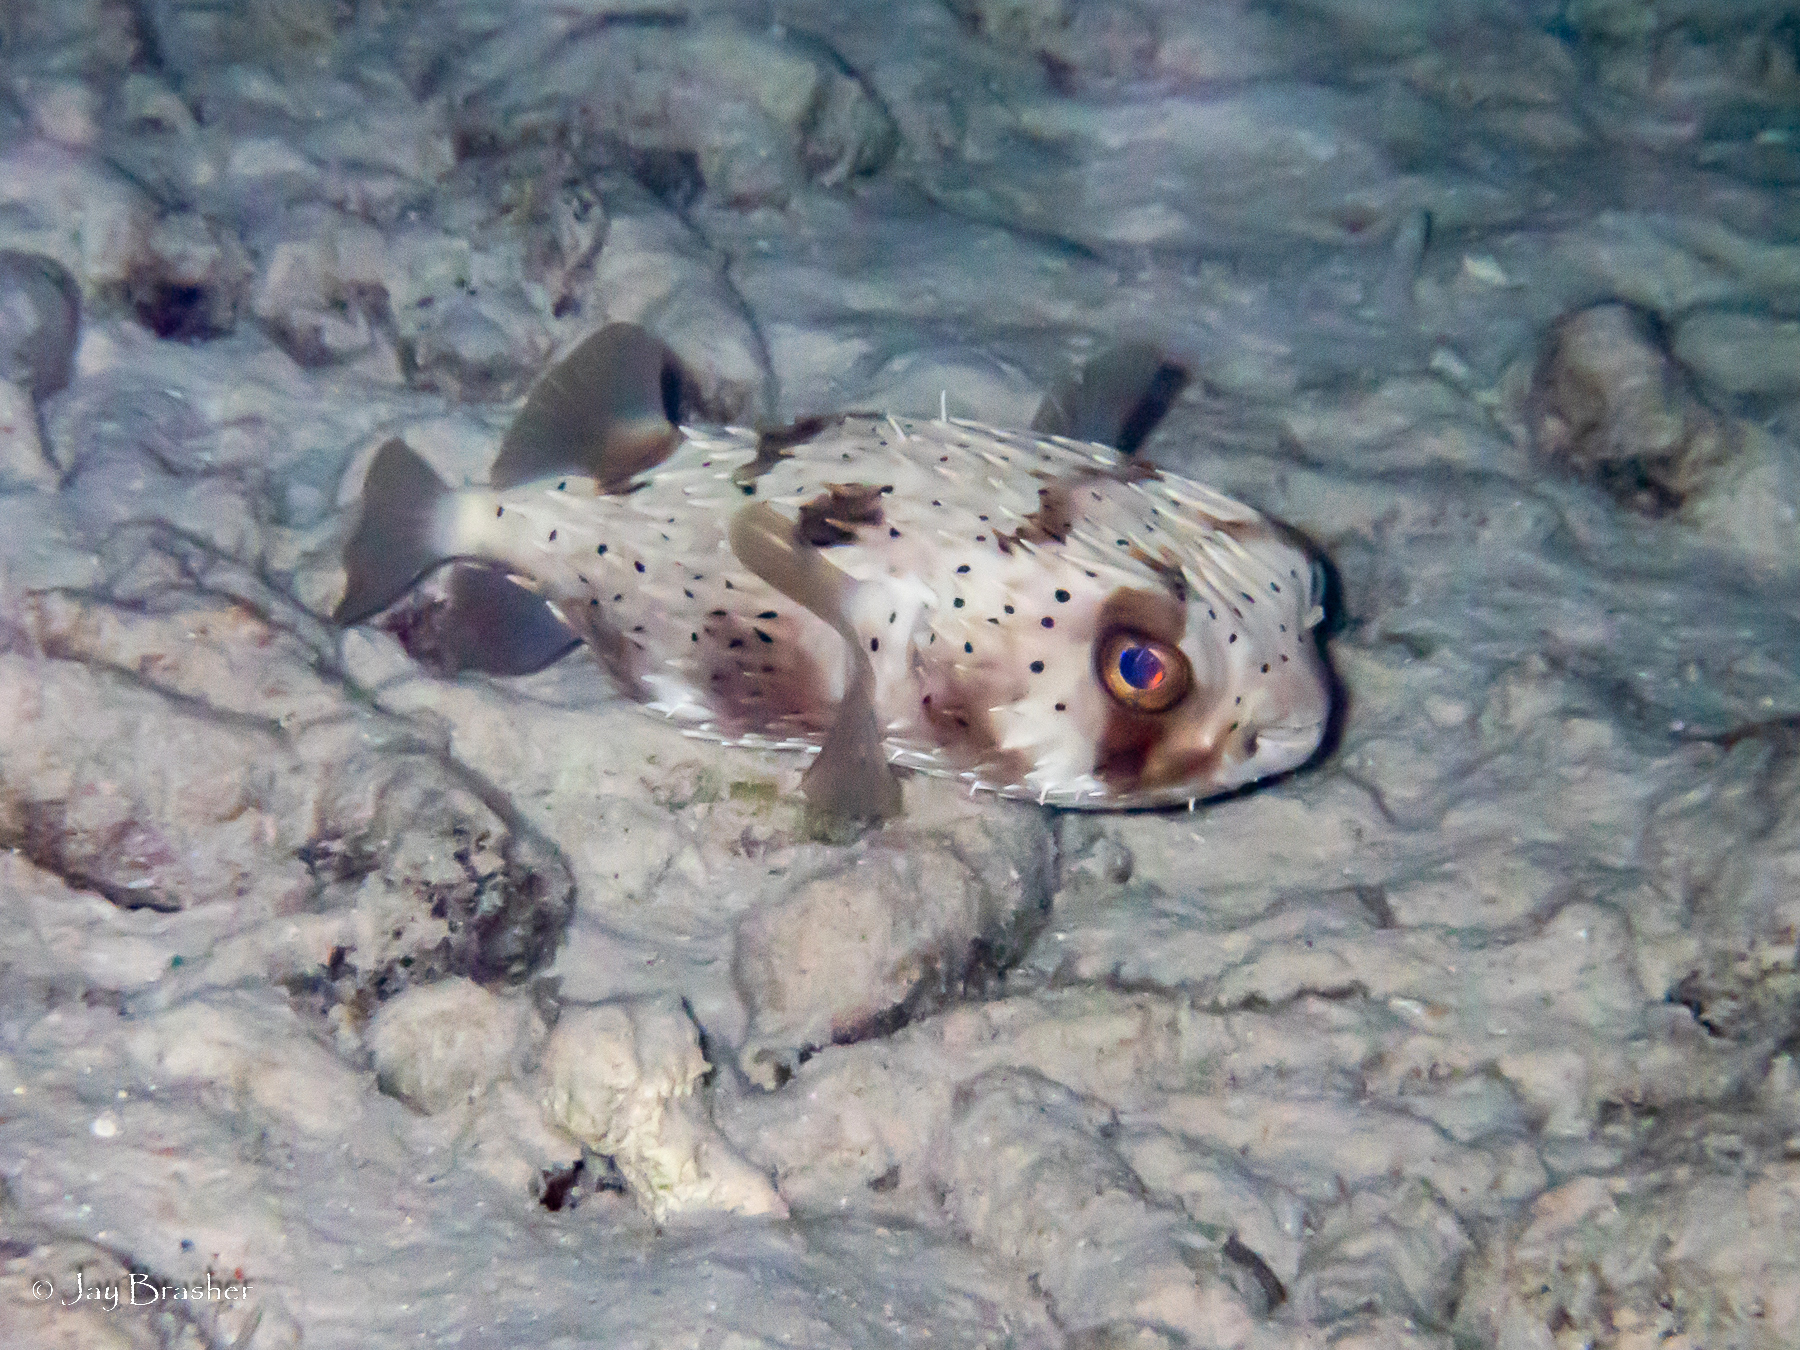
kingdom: Animalia
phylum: Chordata
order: Tetraodontiformes
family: Diodontidae
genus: Diodon
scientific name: Diodon holocanthus
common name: Balloonfish
